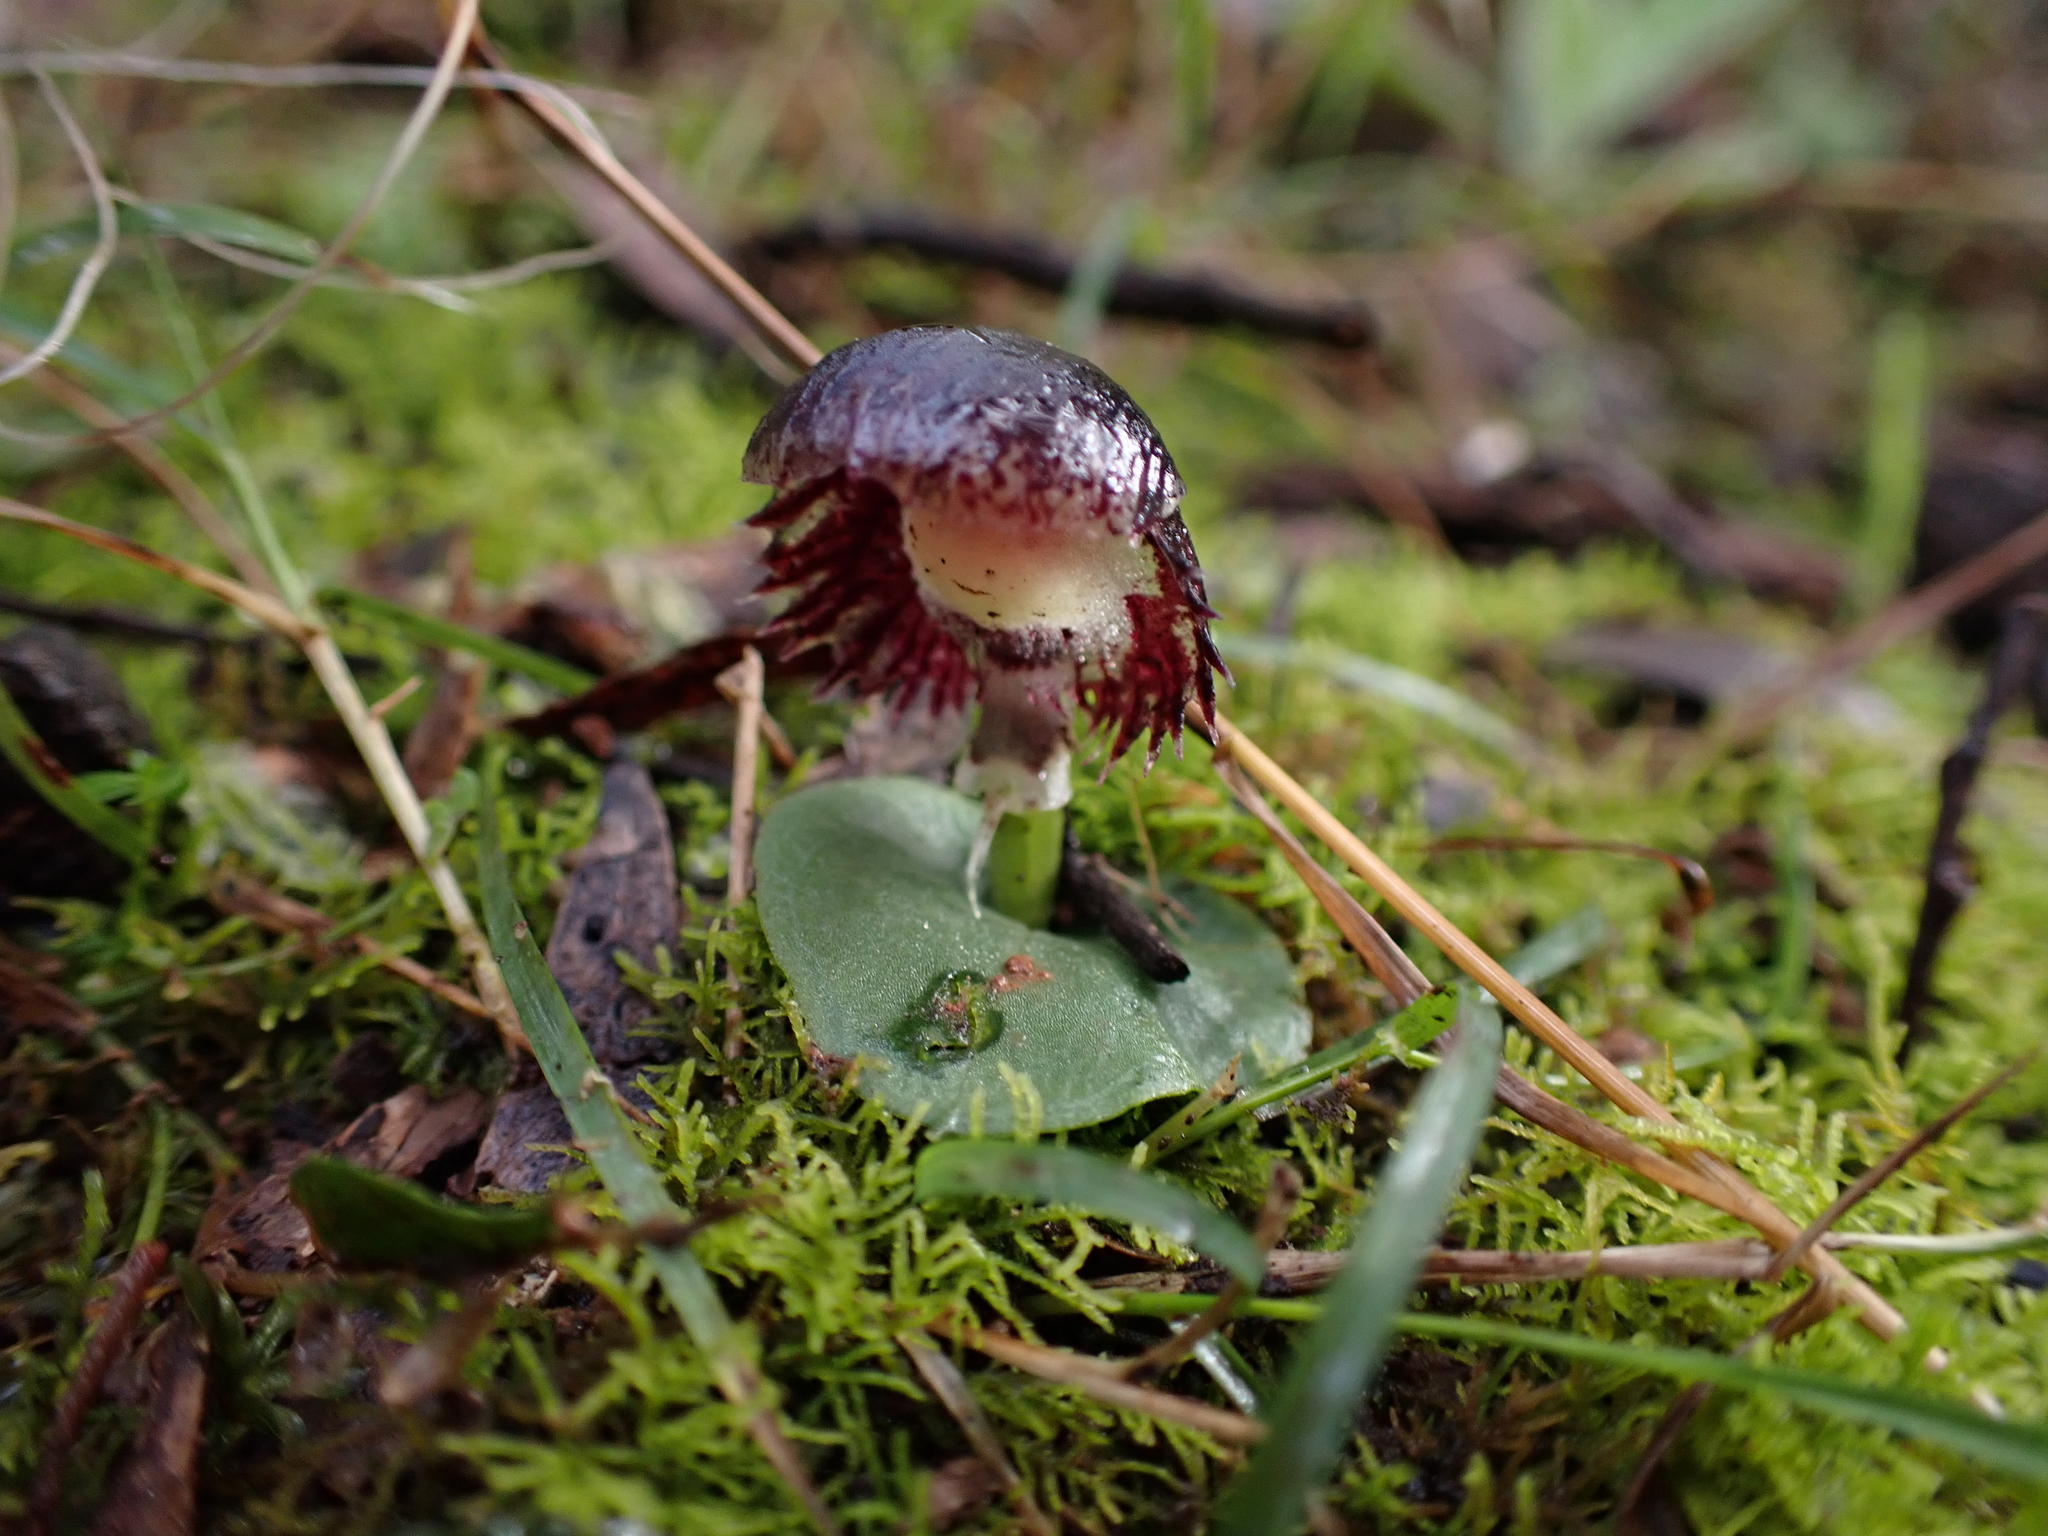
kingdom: Plantae
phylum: Tracheophyta
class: Liliopsida
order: Asparagales
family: Orchidaceae
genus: Corybas
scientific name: Corybas diemenicus
